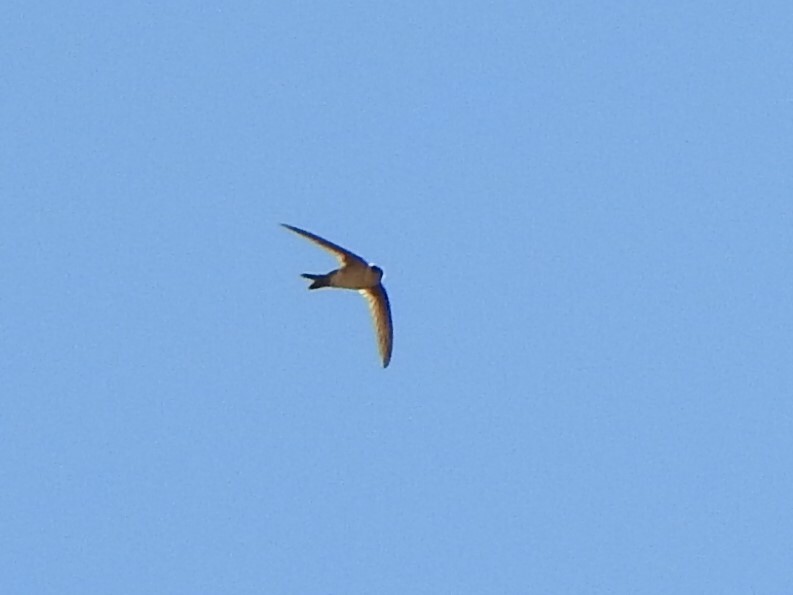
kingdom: Animalia
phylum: Chordata
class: Aves
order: Apodiformes
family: Apodidae
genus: Aeronautes
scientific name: Aeronautes andecolus
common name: Andean swift
